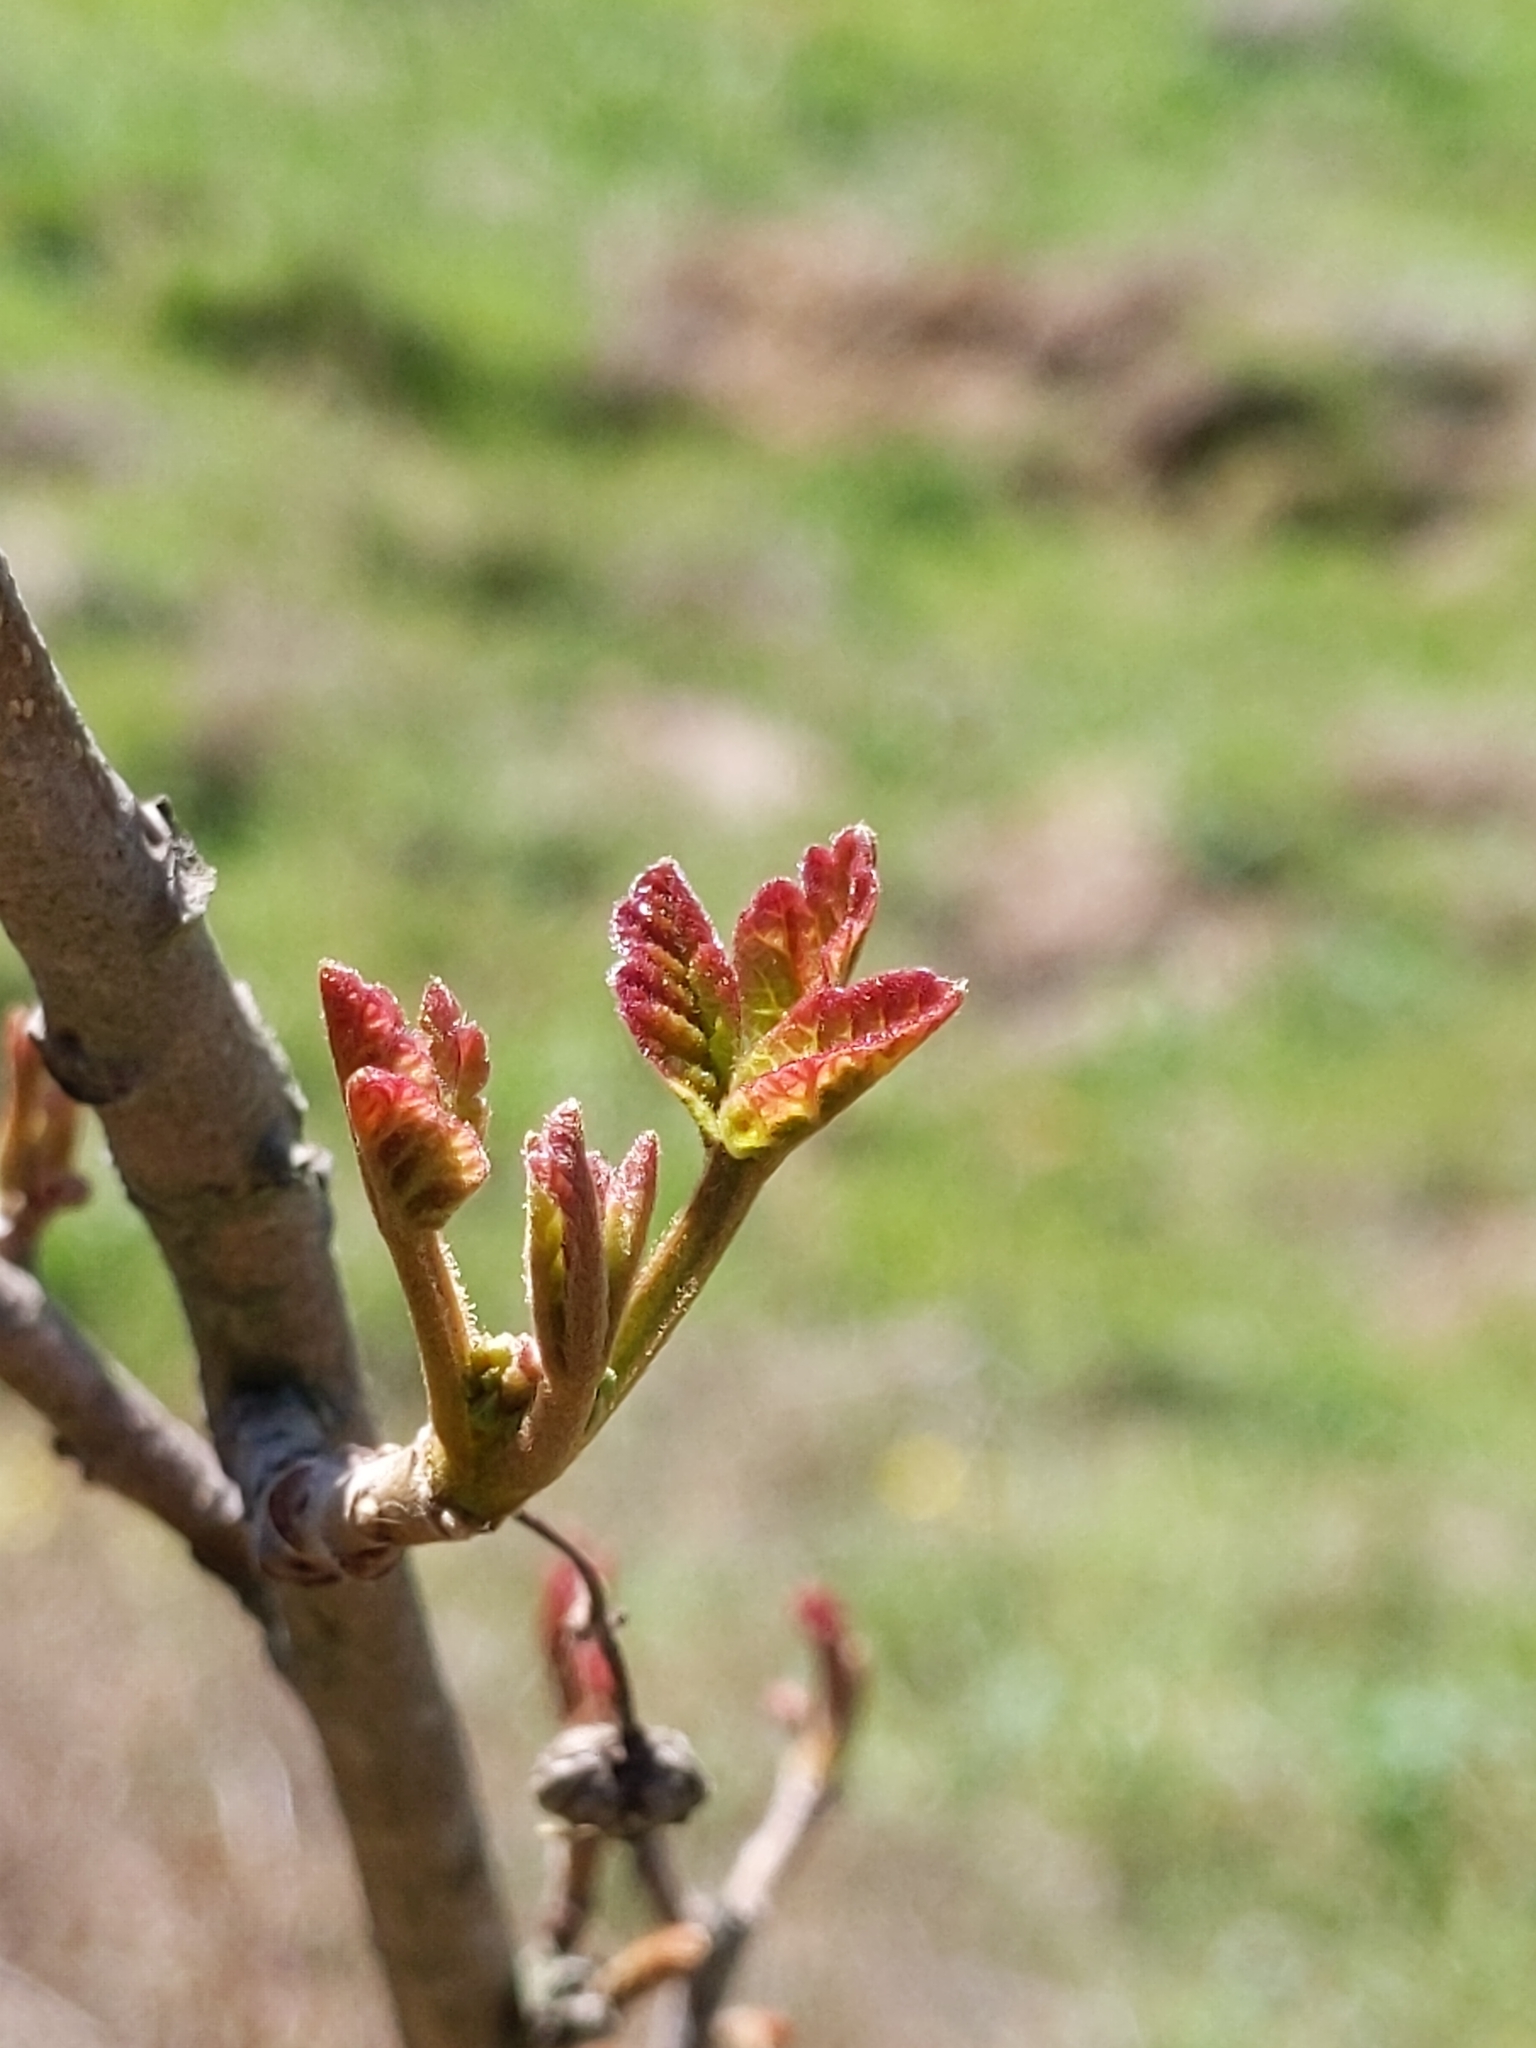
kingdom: Plantae
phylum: Tracheophyta
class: Magnoliopsida
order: Sapindales
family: Anacardiaceae
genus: Toxicodendron
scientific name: Toxicodendron diversilobum
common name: Pacific poison-oak
